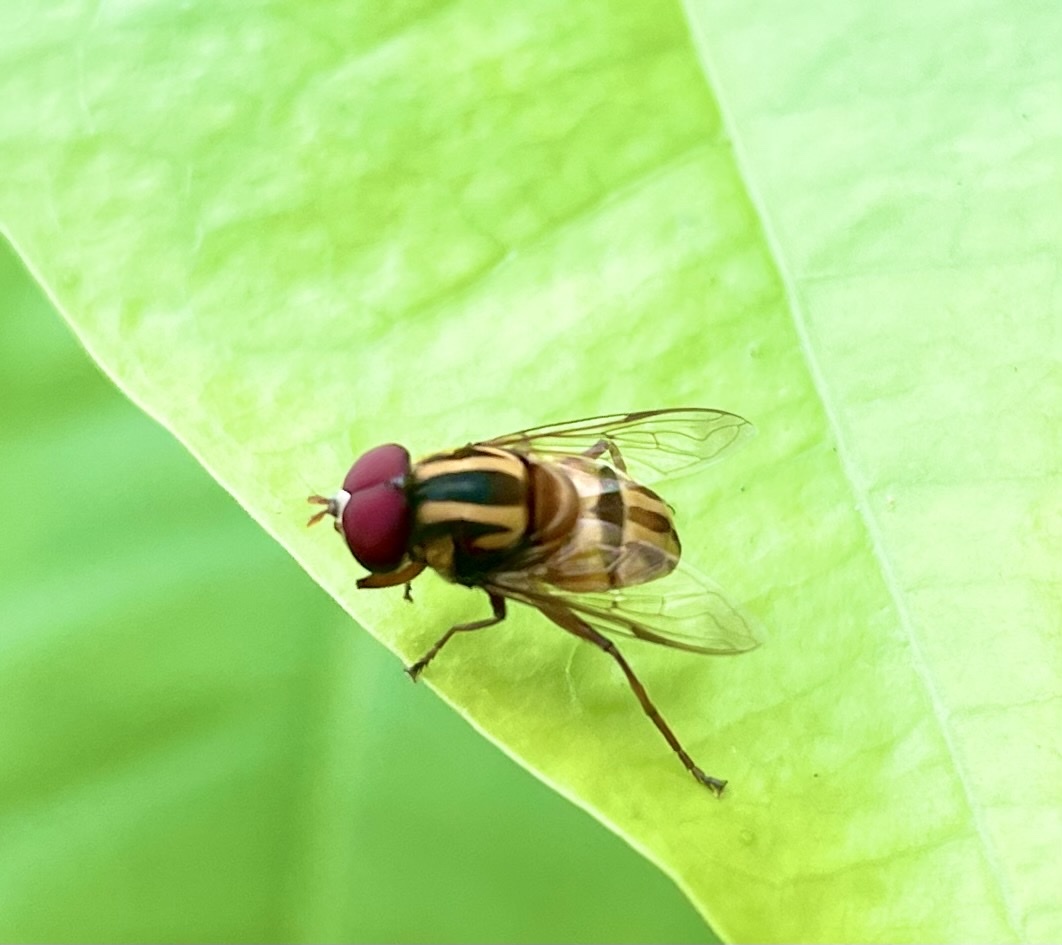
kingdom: Animalia
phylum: Arthropoda
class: Insecta
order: Diptera
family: Syrphidae
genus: Austalis
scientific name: Austalis conjucta
